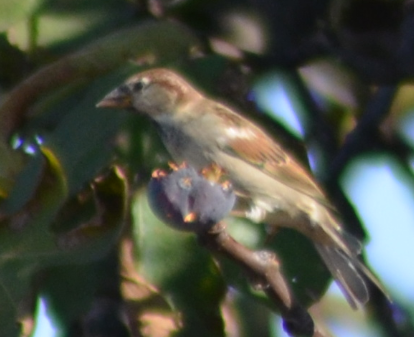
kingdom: Animalia
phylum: Chordata
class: Aves
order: Passeriformes
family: Passeridae
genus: Passer
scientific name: Passer domesticus
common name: House sparrow
